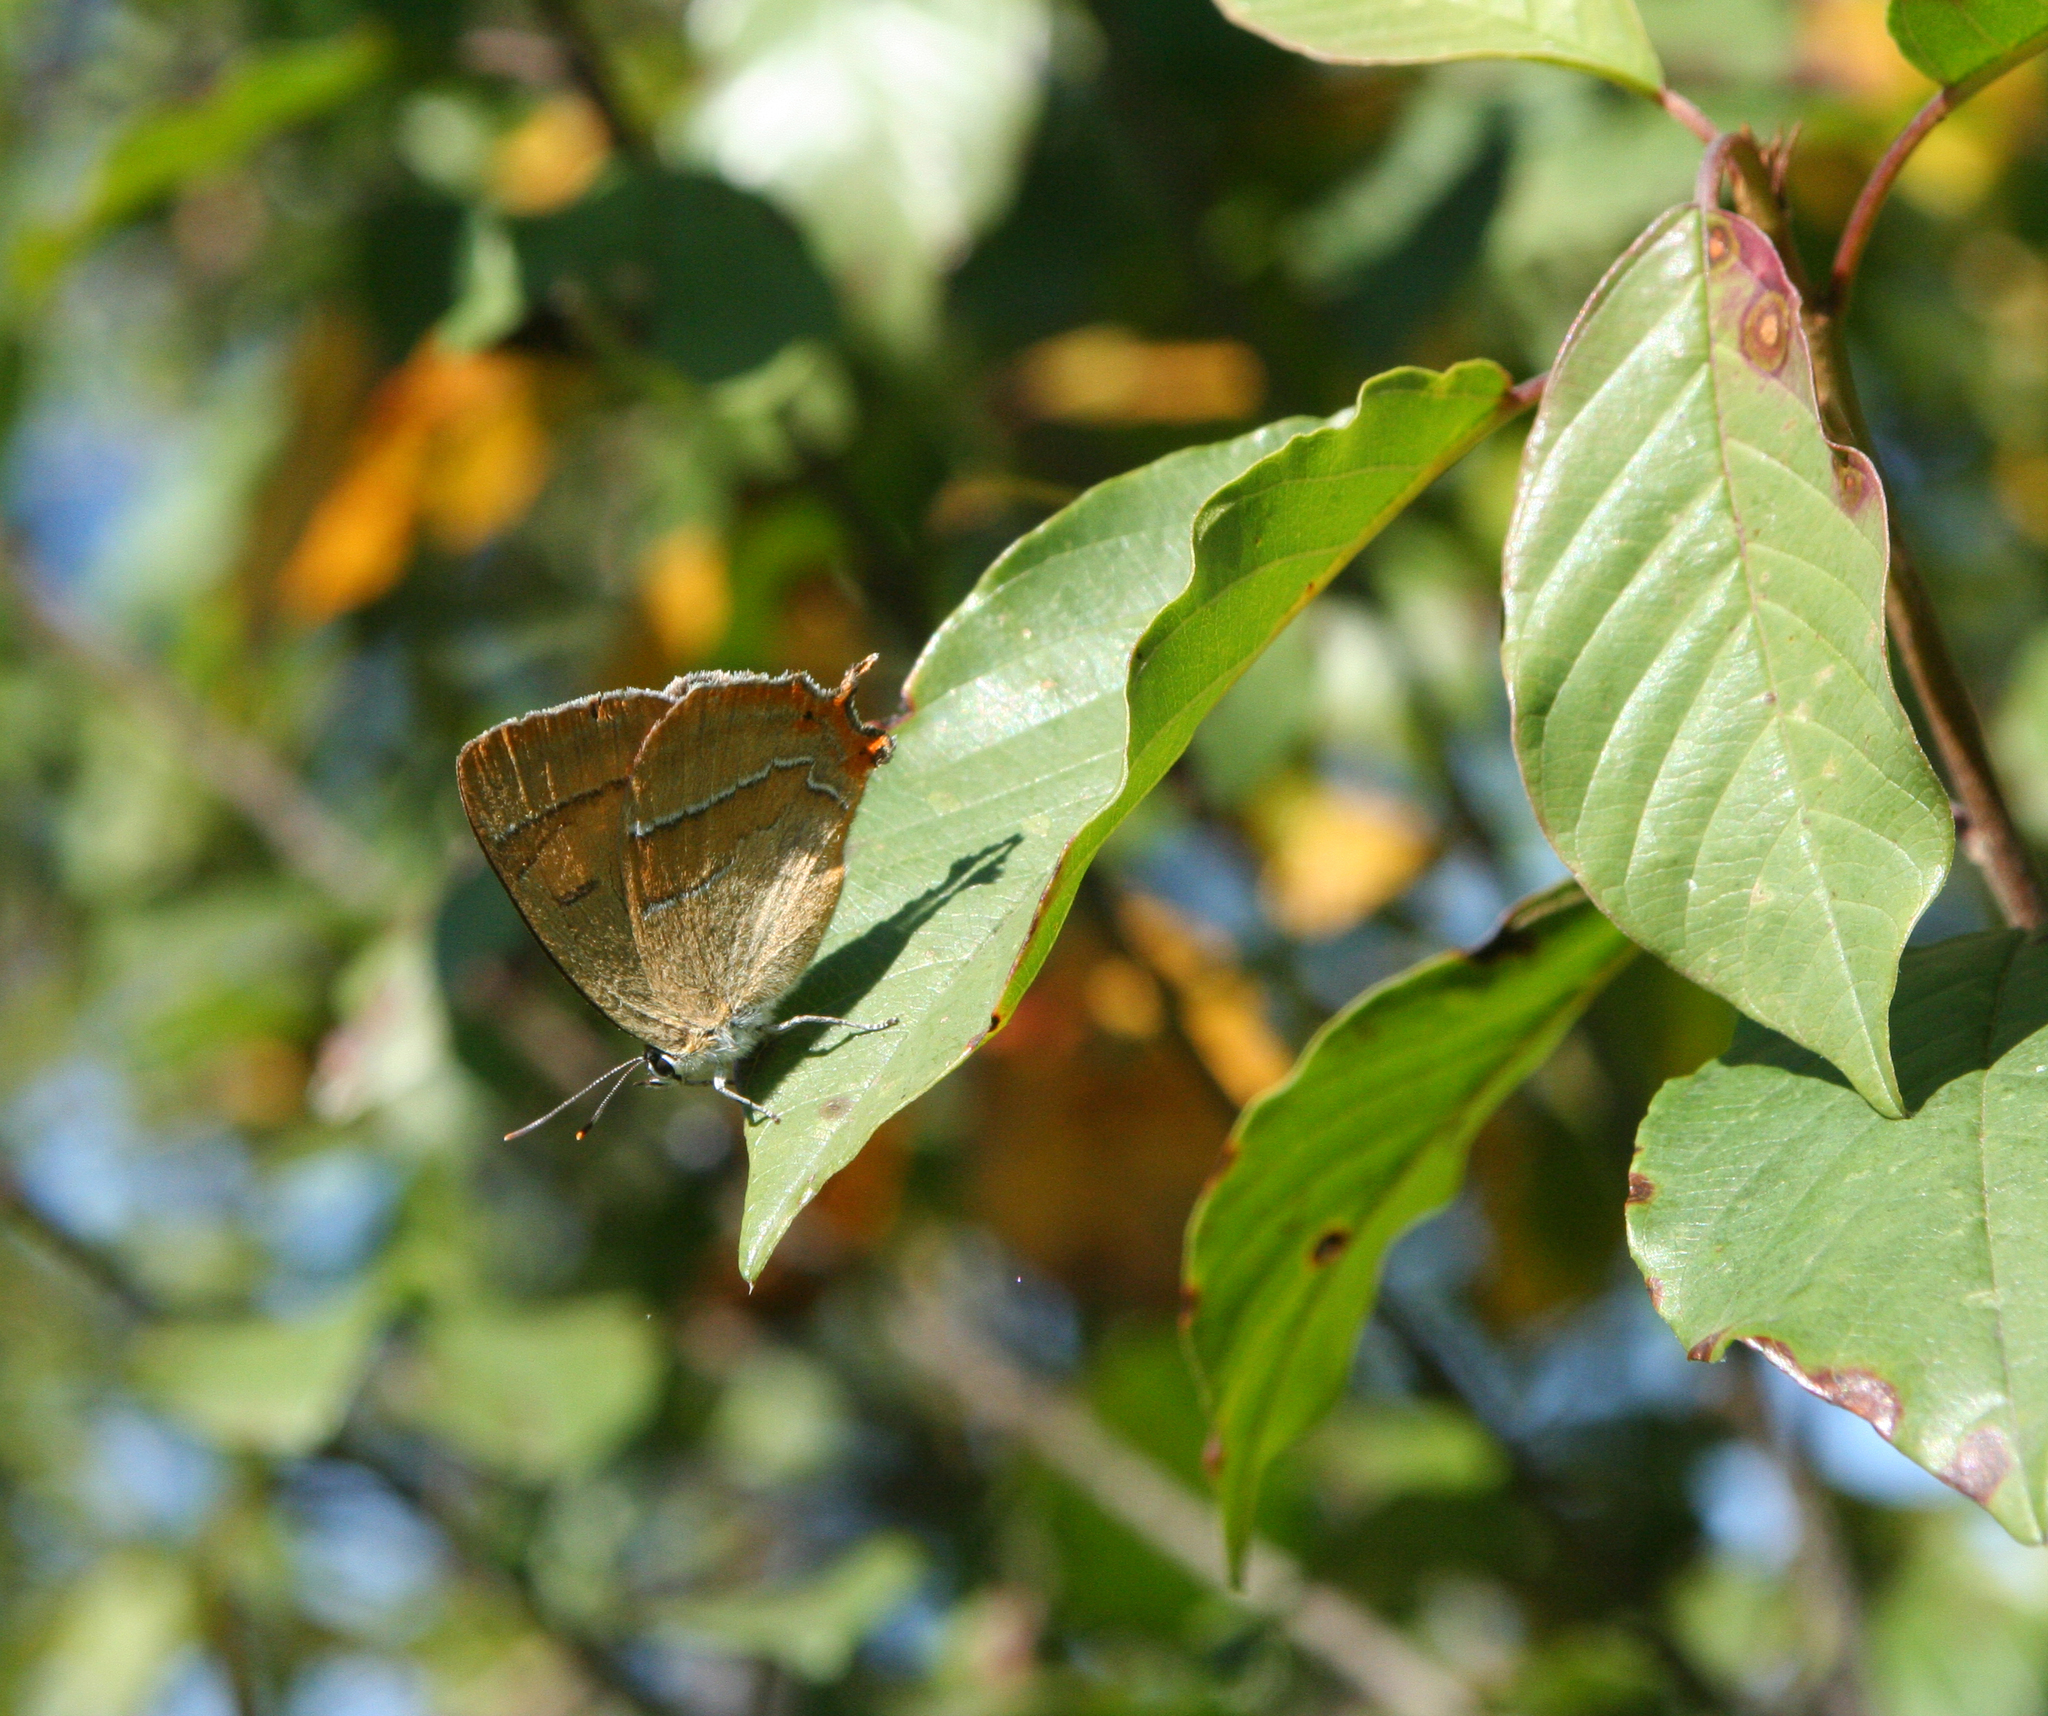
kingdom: Animalia
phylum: Arthropoda
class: Insecta
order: Lepidoptera
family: Lycaenidae
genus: Thecla
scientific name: Thecla betulae
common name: Brown hairstreak
